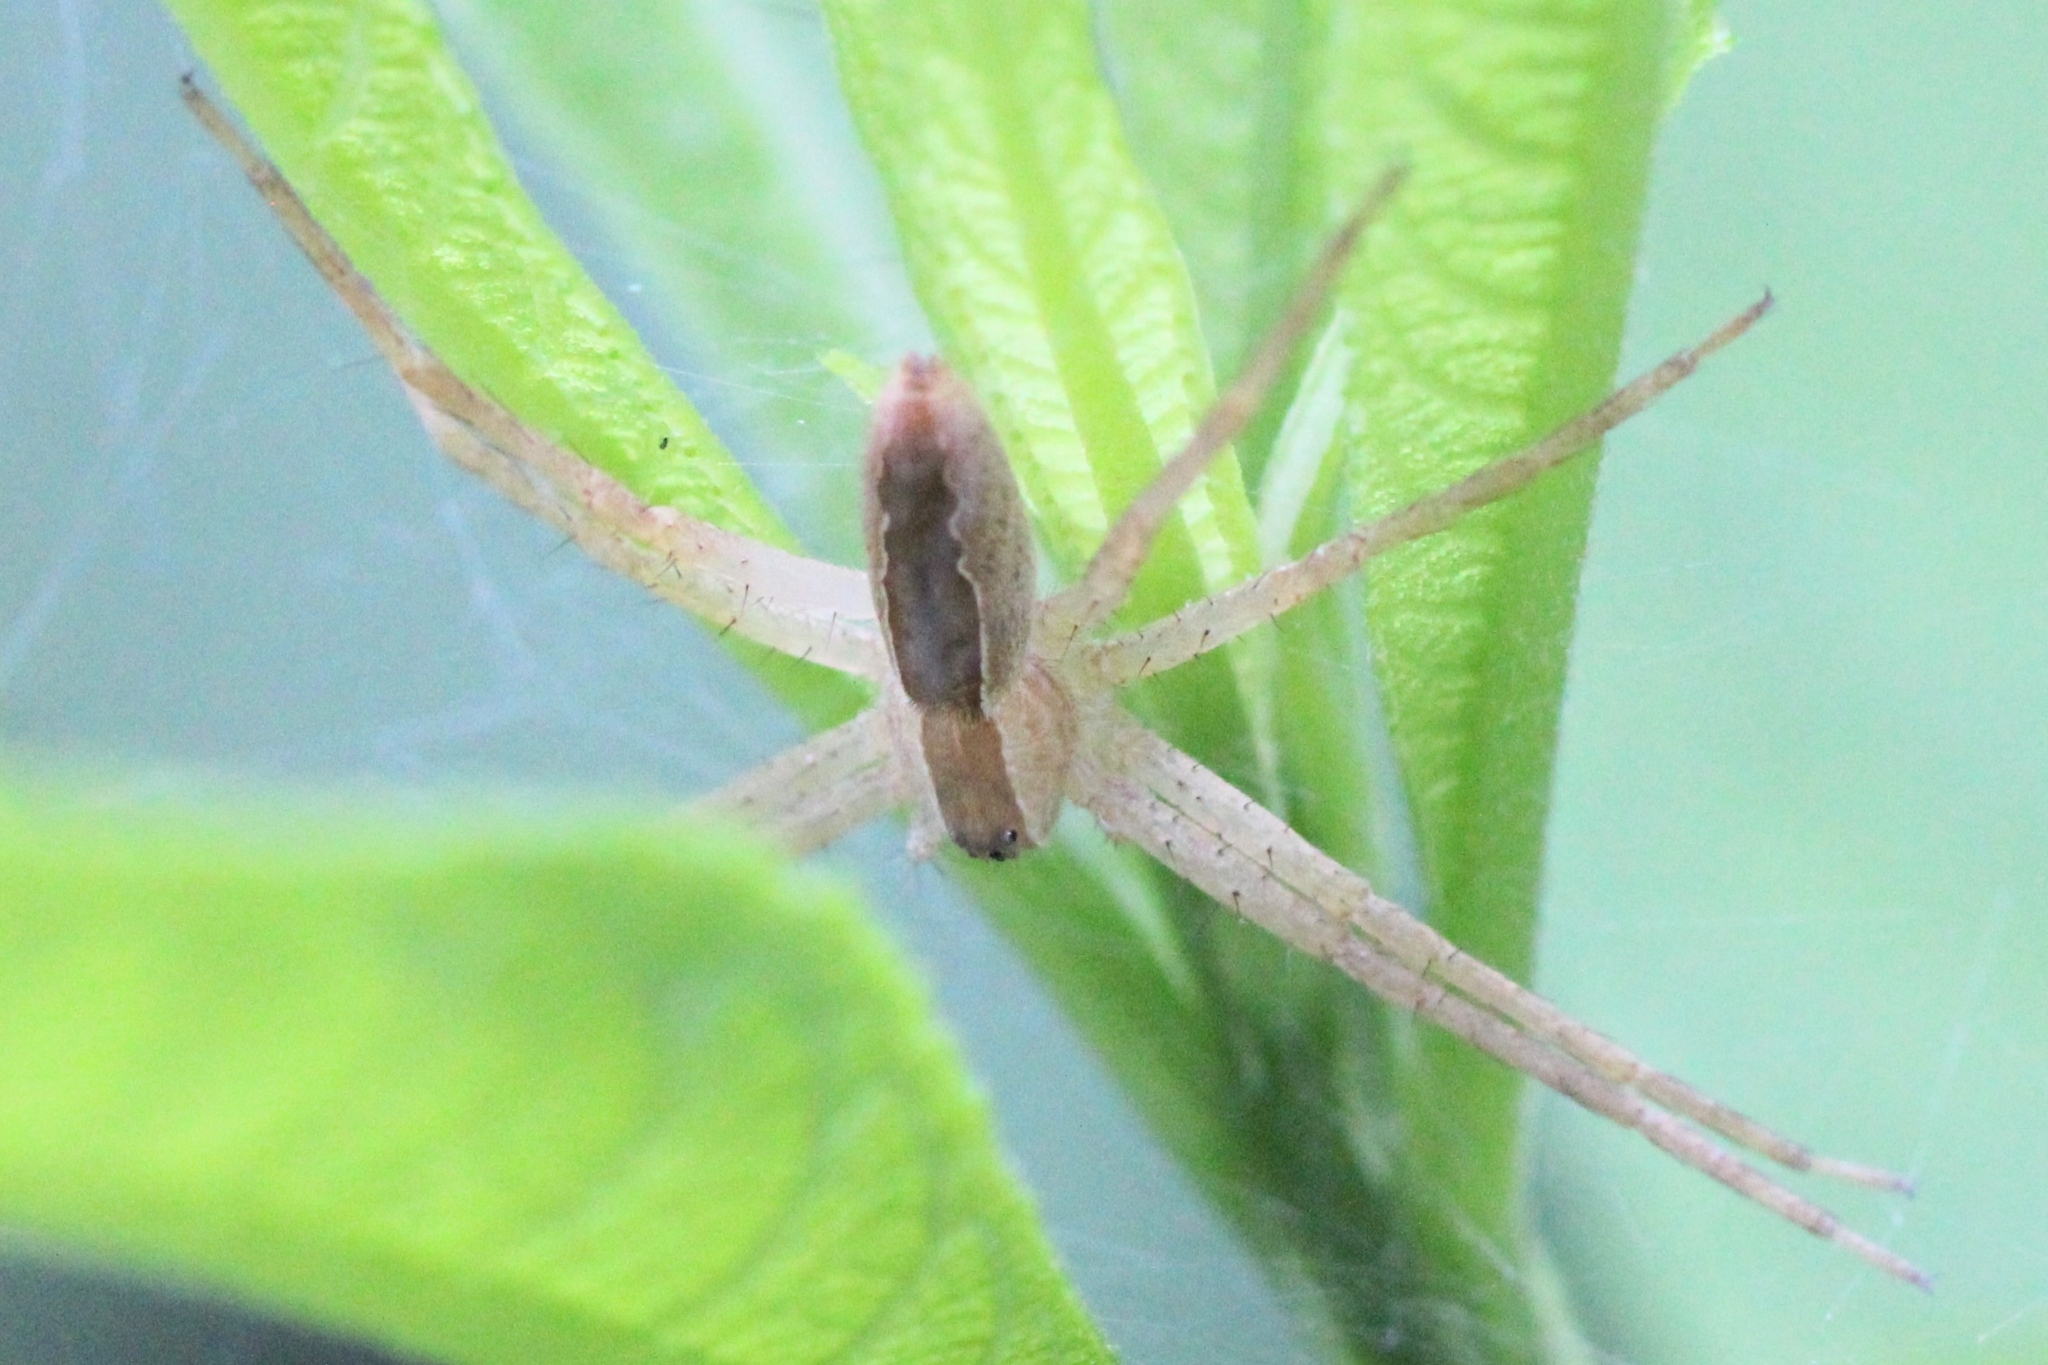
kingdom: Animalia
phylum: Arthropoda
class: Arachnida
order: Araneae
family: Pisauridae
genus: Pisaurina
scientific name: Pisaurina mira
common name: American nursery web spider
